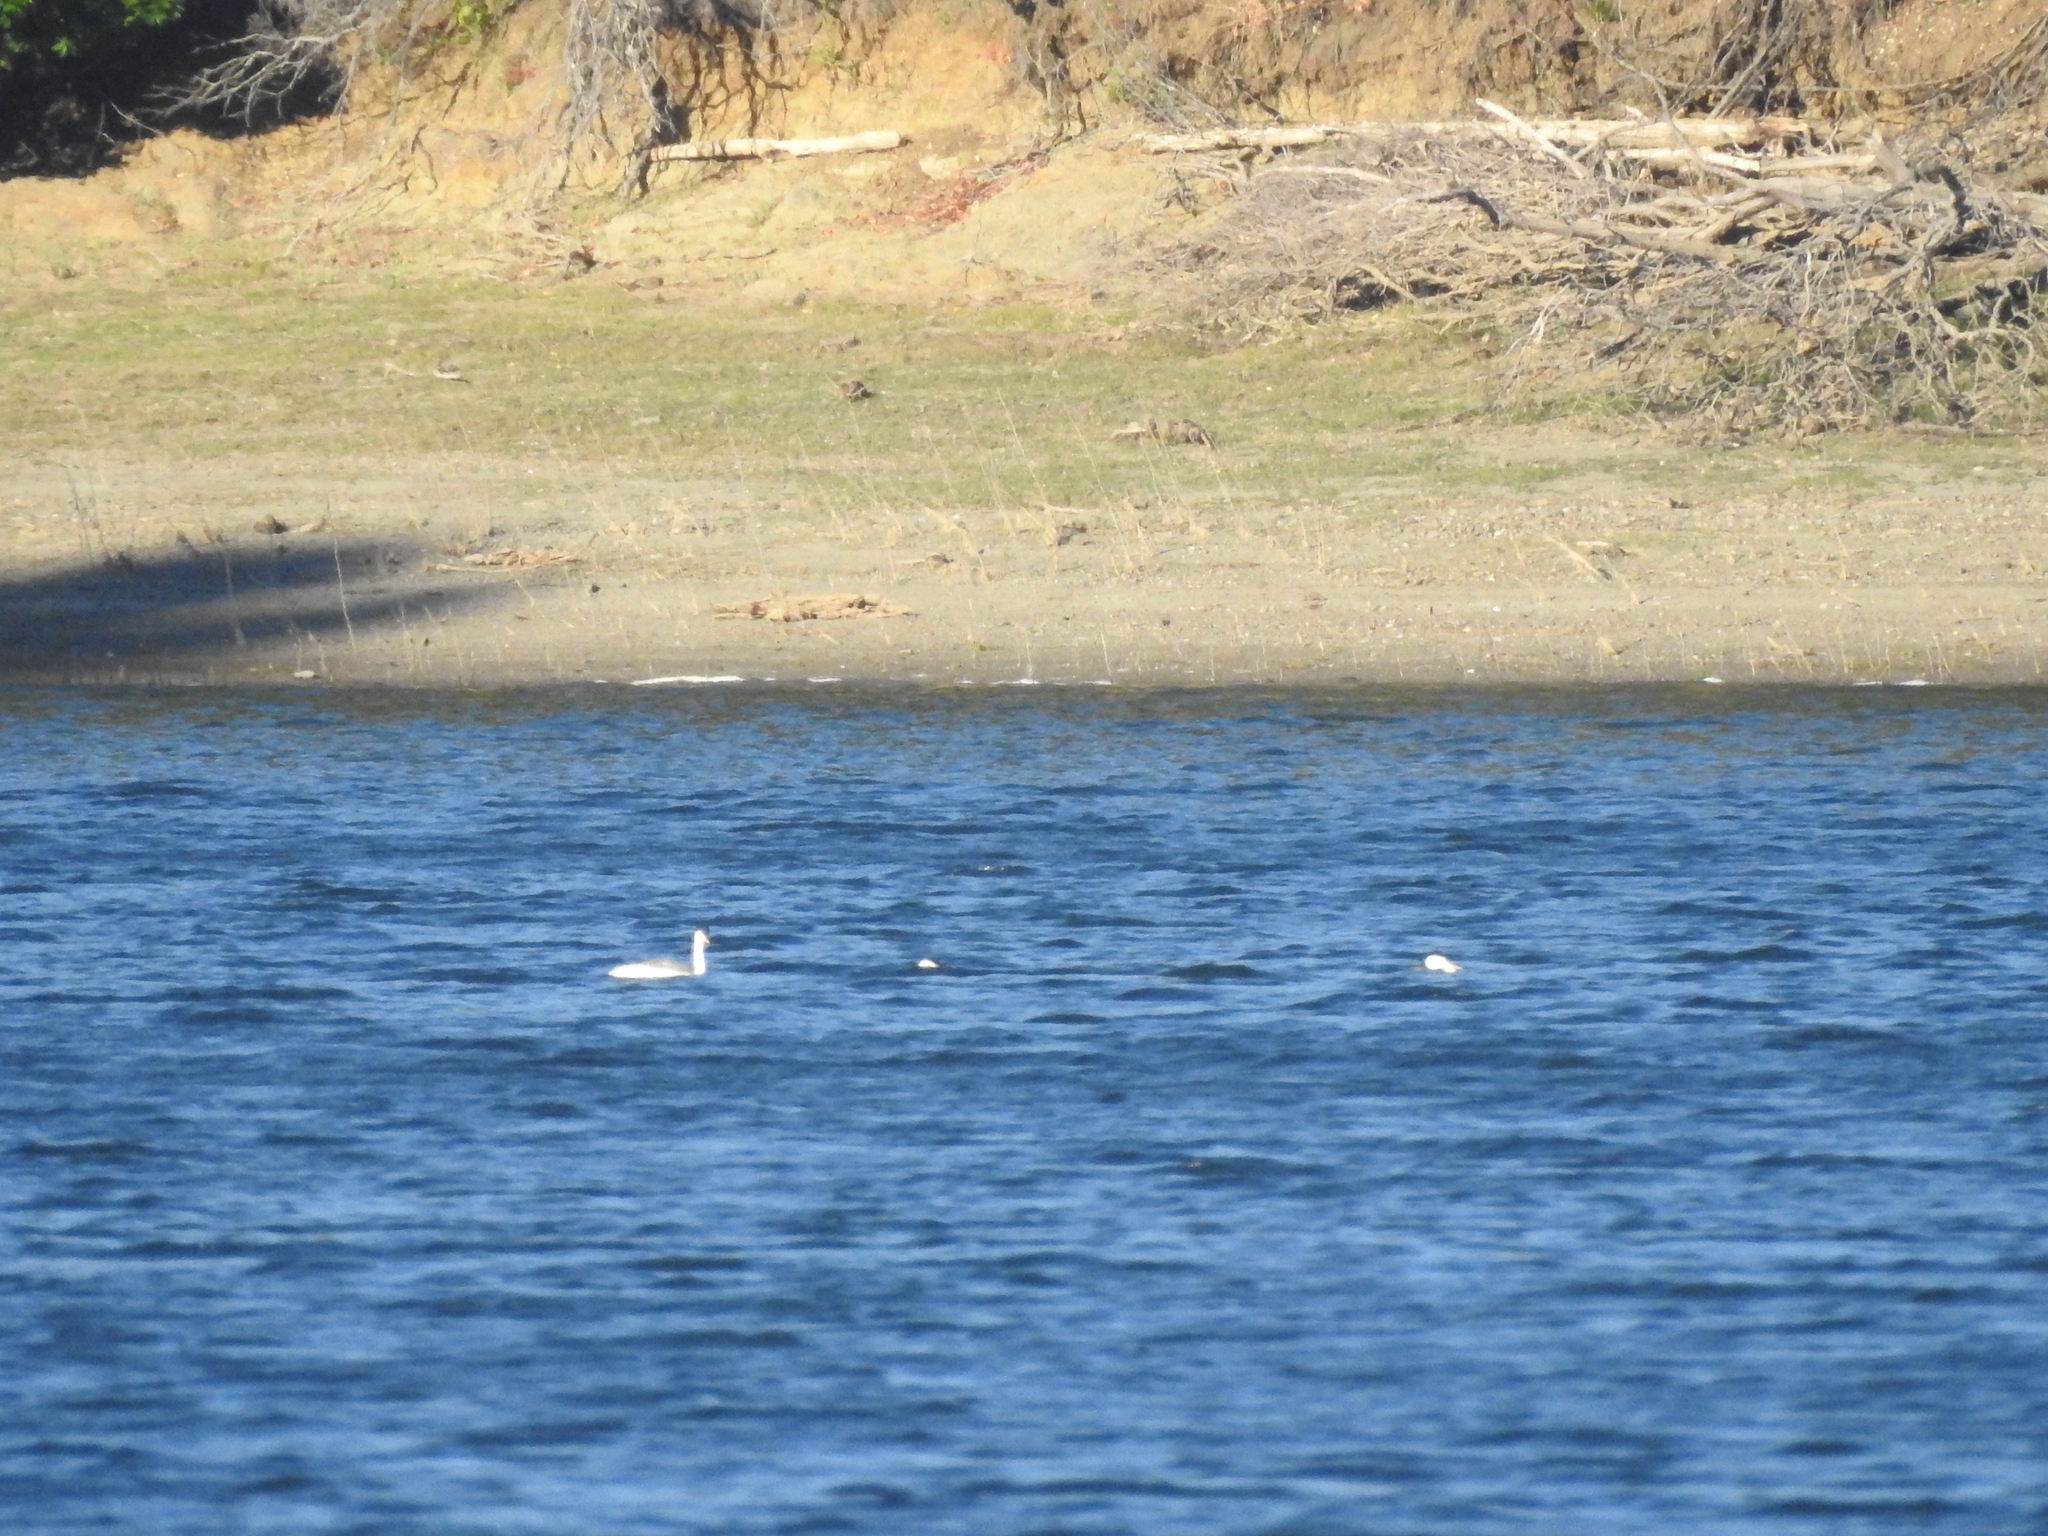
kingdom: Animalia
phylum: Chordata
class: Aves
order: Podicipediformes
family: Podicipedidae
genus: Aechmophorus
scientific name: Aechmophorus clarkii
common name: Clark's grebe
